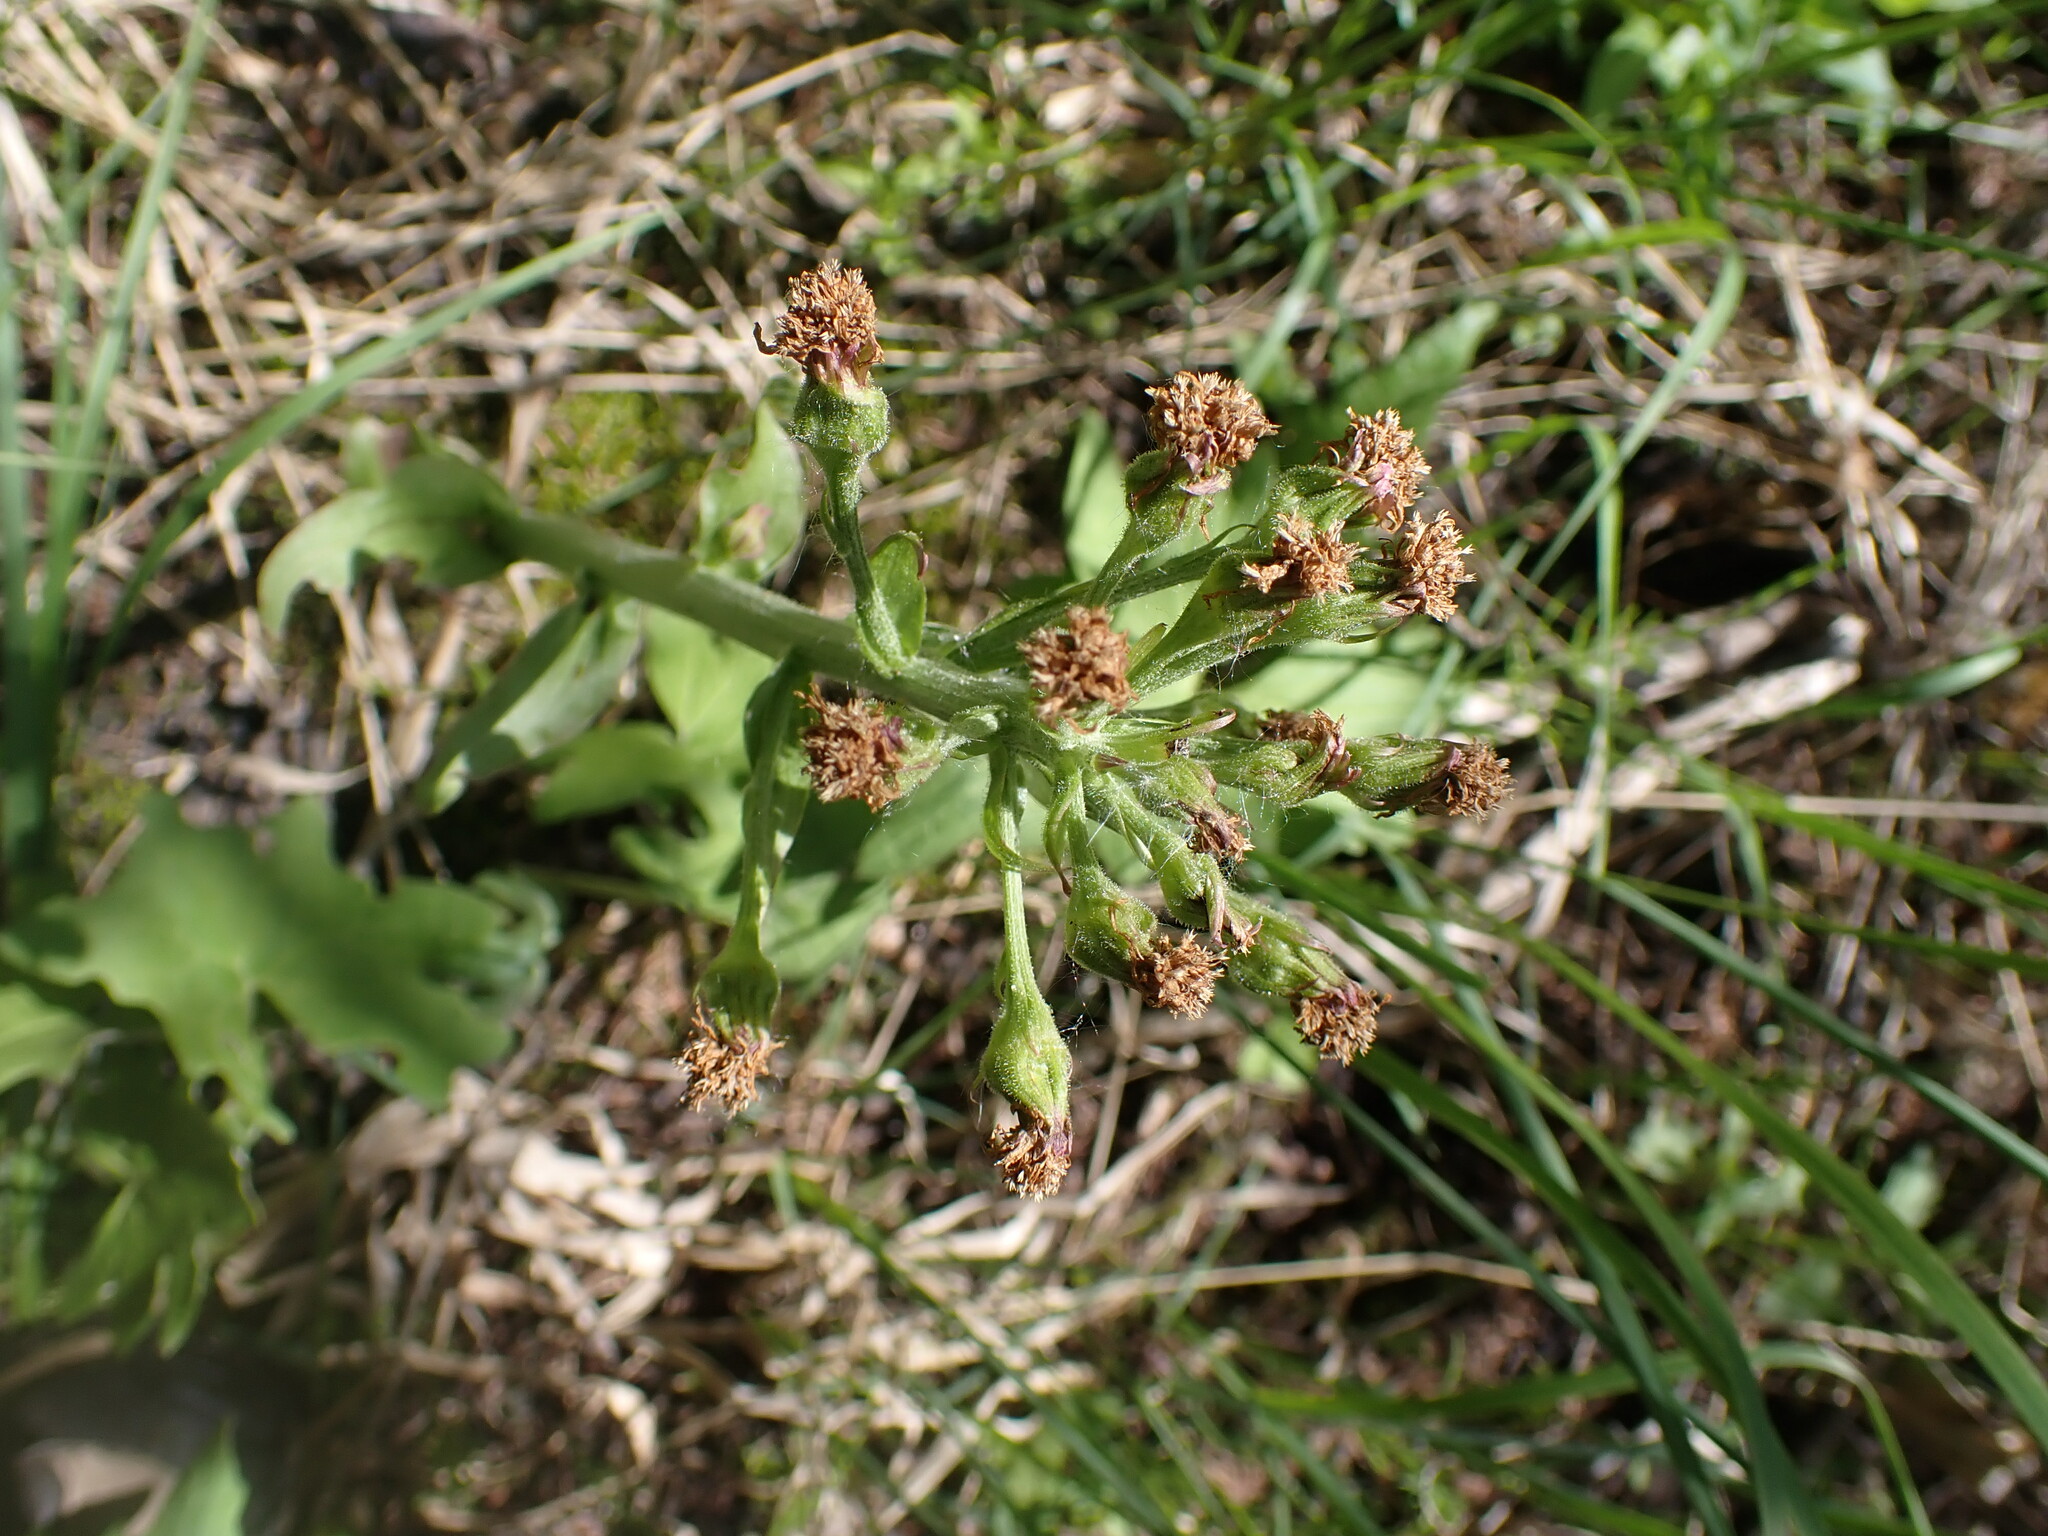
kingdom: Plantae
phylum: Tracheophyta
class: Magnoliopsida
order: Asterales
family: Asteraceae
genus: Petasites
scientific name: Petasites frigidus
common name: Arctic butterbur
